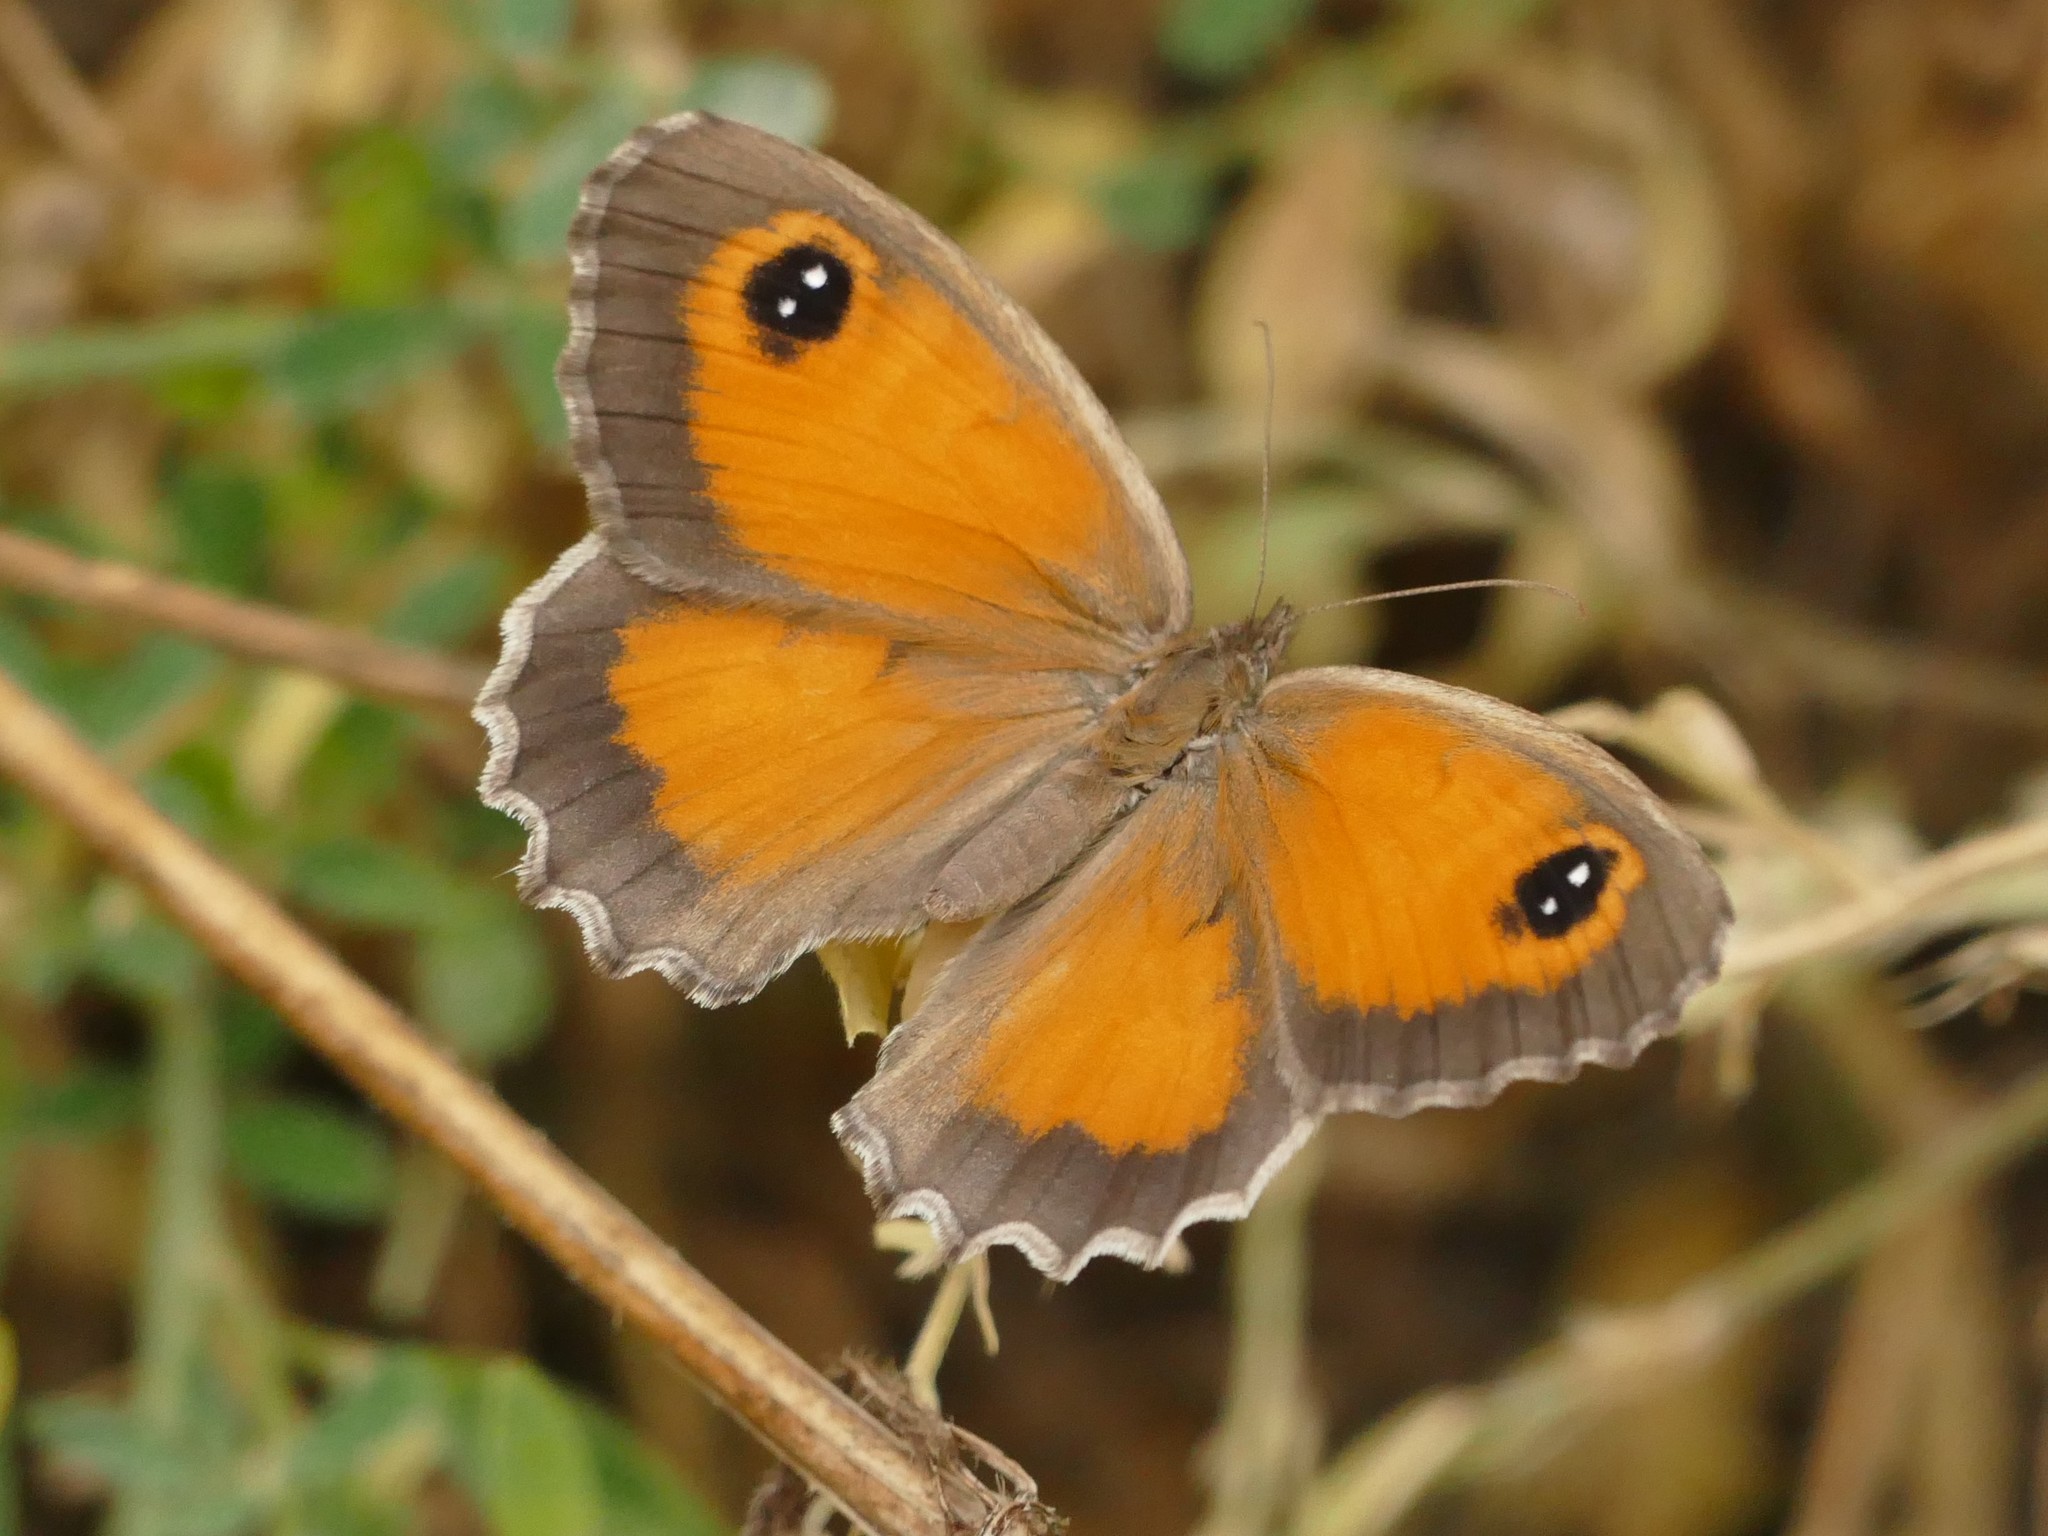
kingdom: Animalia
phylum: Arthropoda
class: Insecta
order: Lepidoptera
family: Nymphalidae
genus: Pyronia
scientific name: Pyronia cecilia
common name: Southern gatekeeper
